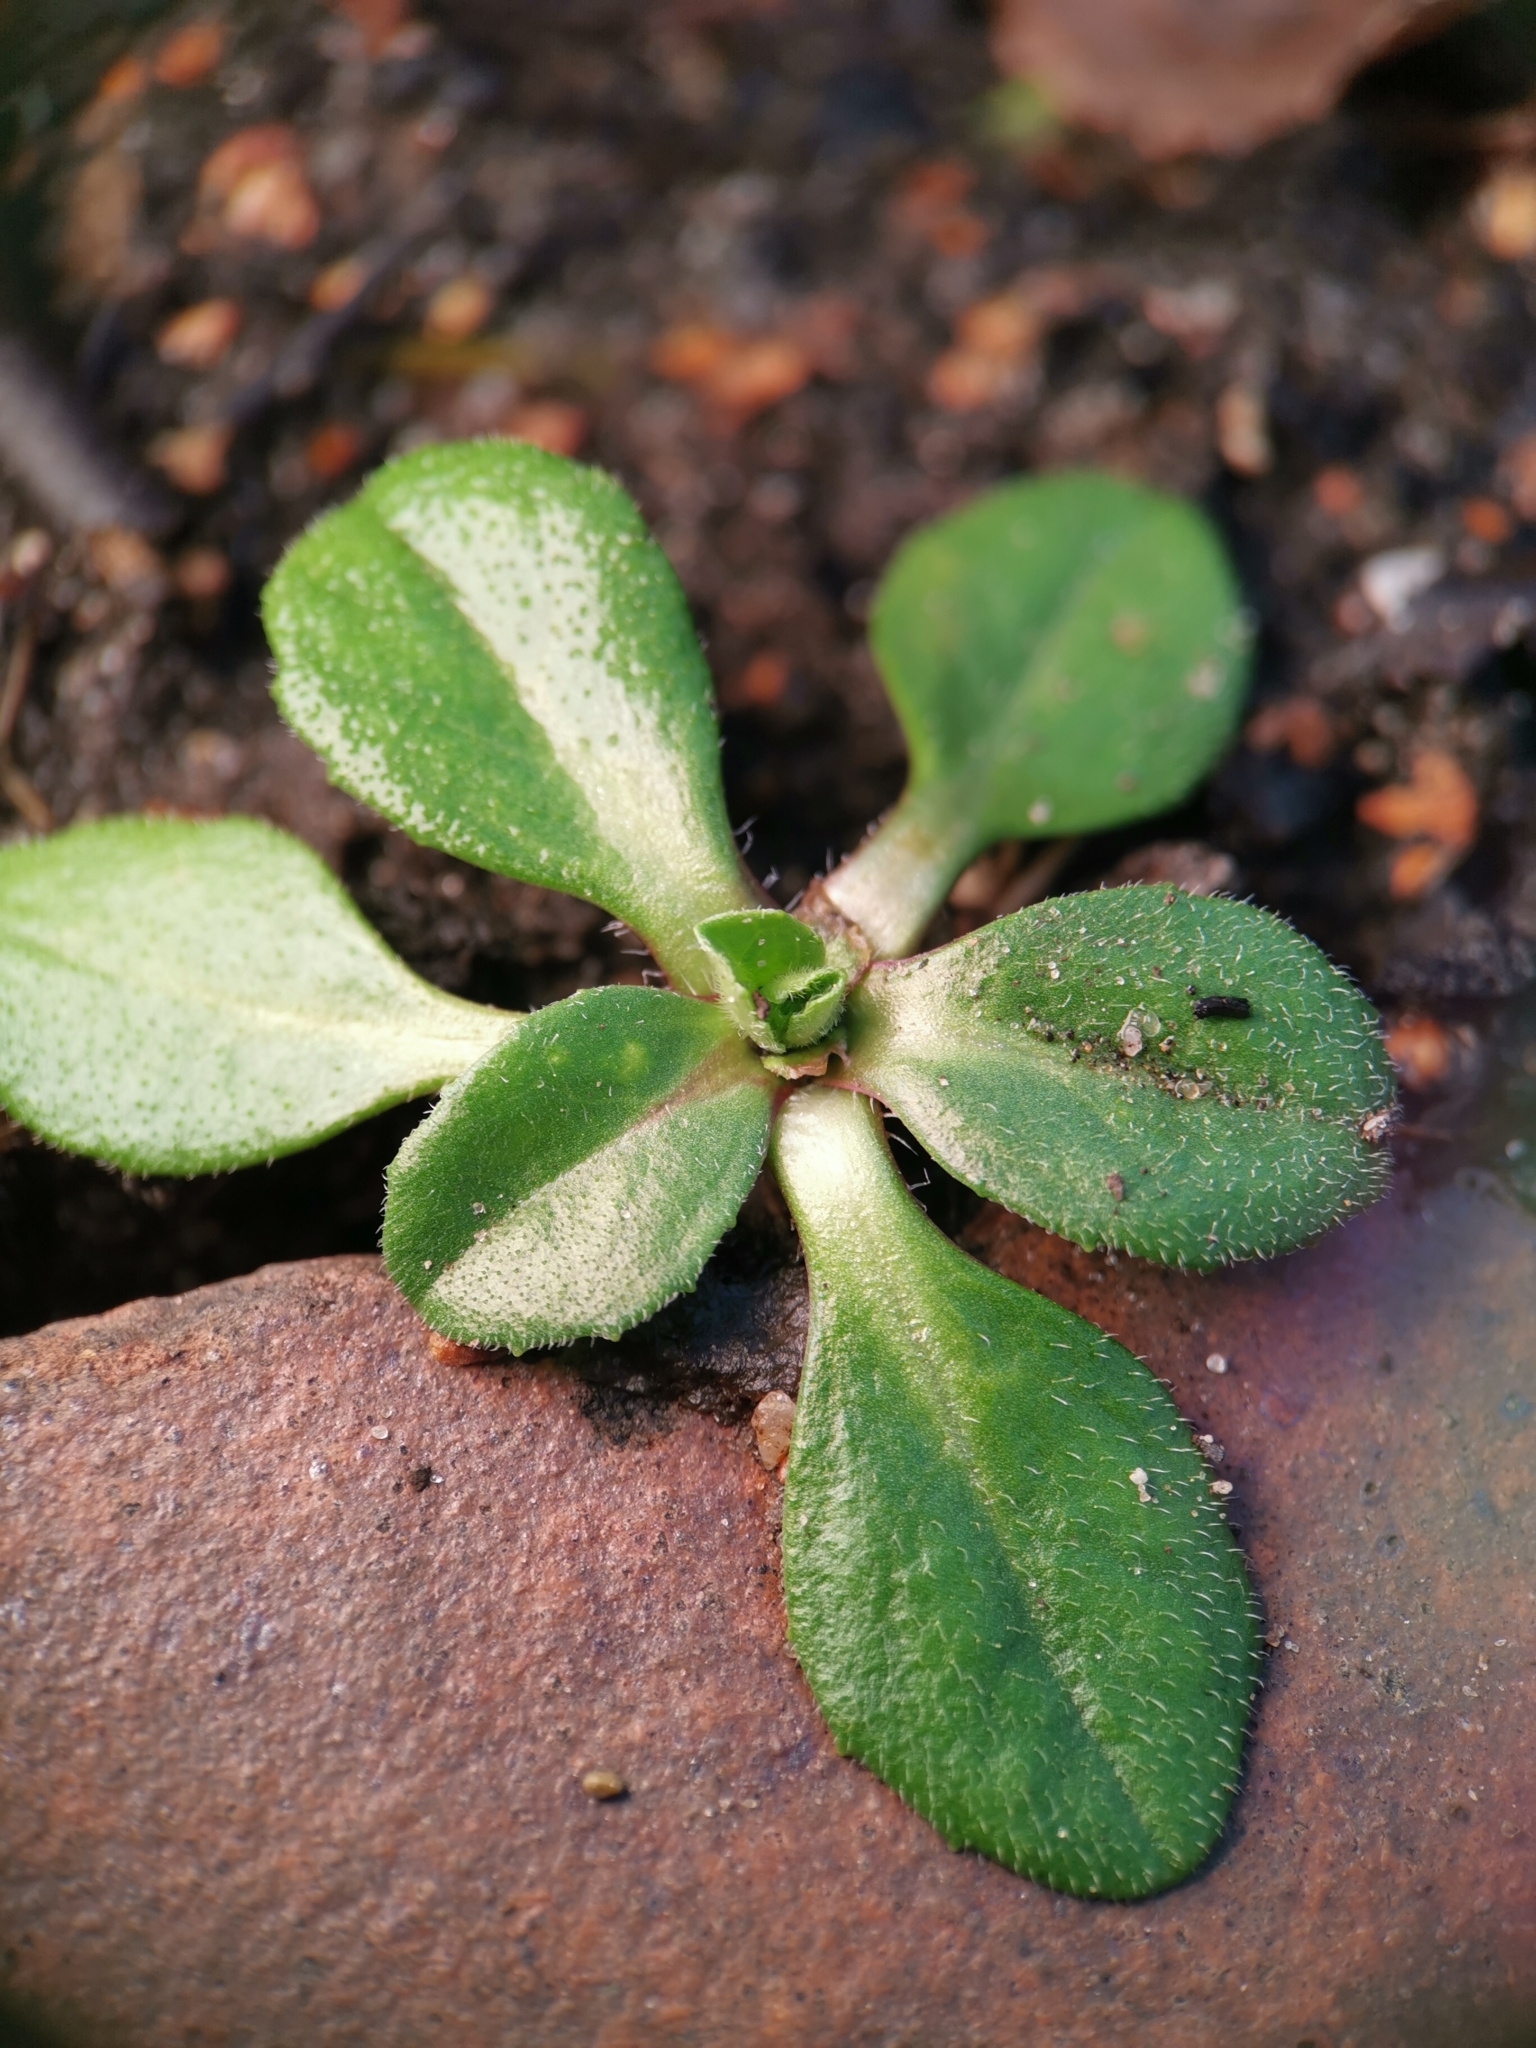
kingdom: Plantae
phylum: Tracheophyta
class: Magnoliopsida
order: Asterales
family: Asteraceae
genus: Bellis
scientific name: Bellis perennis
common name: Lawndaisy
